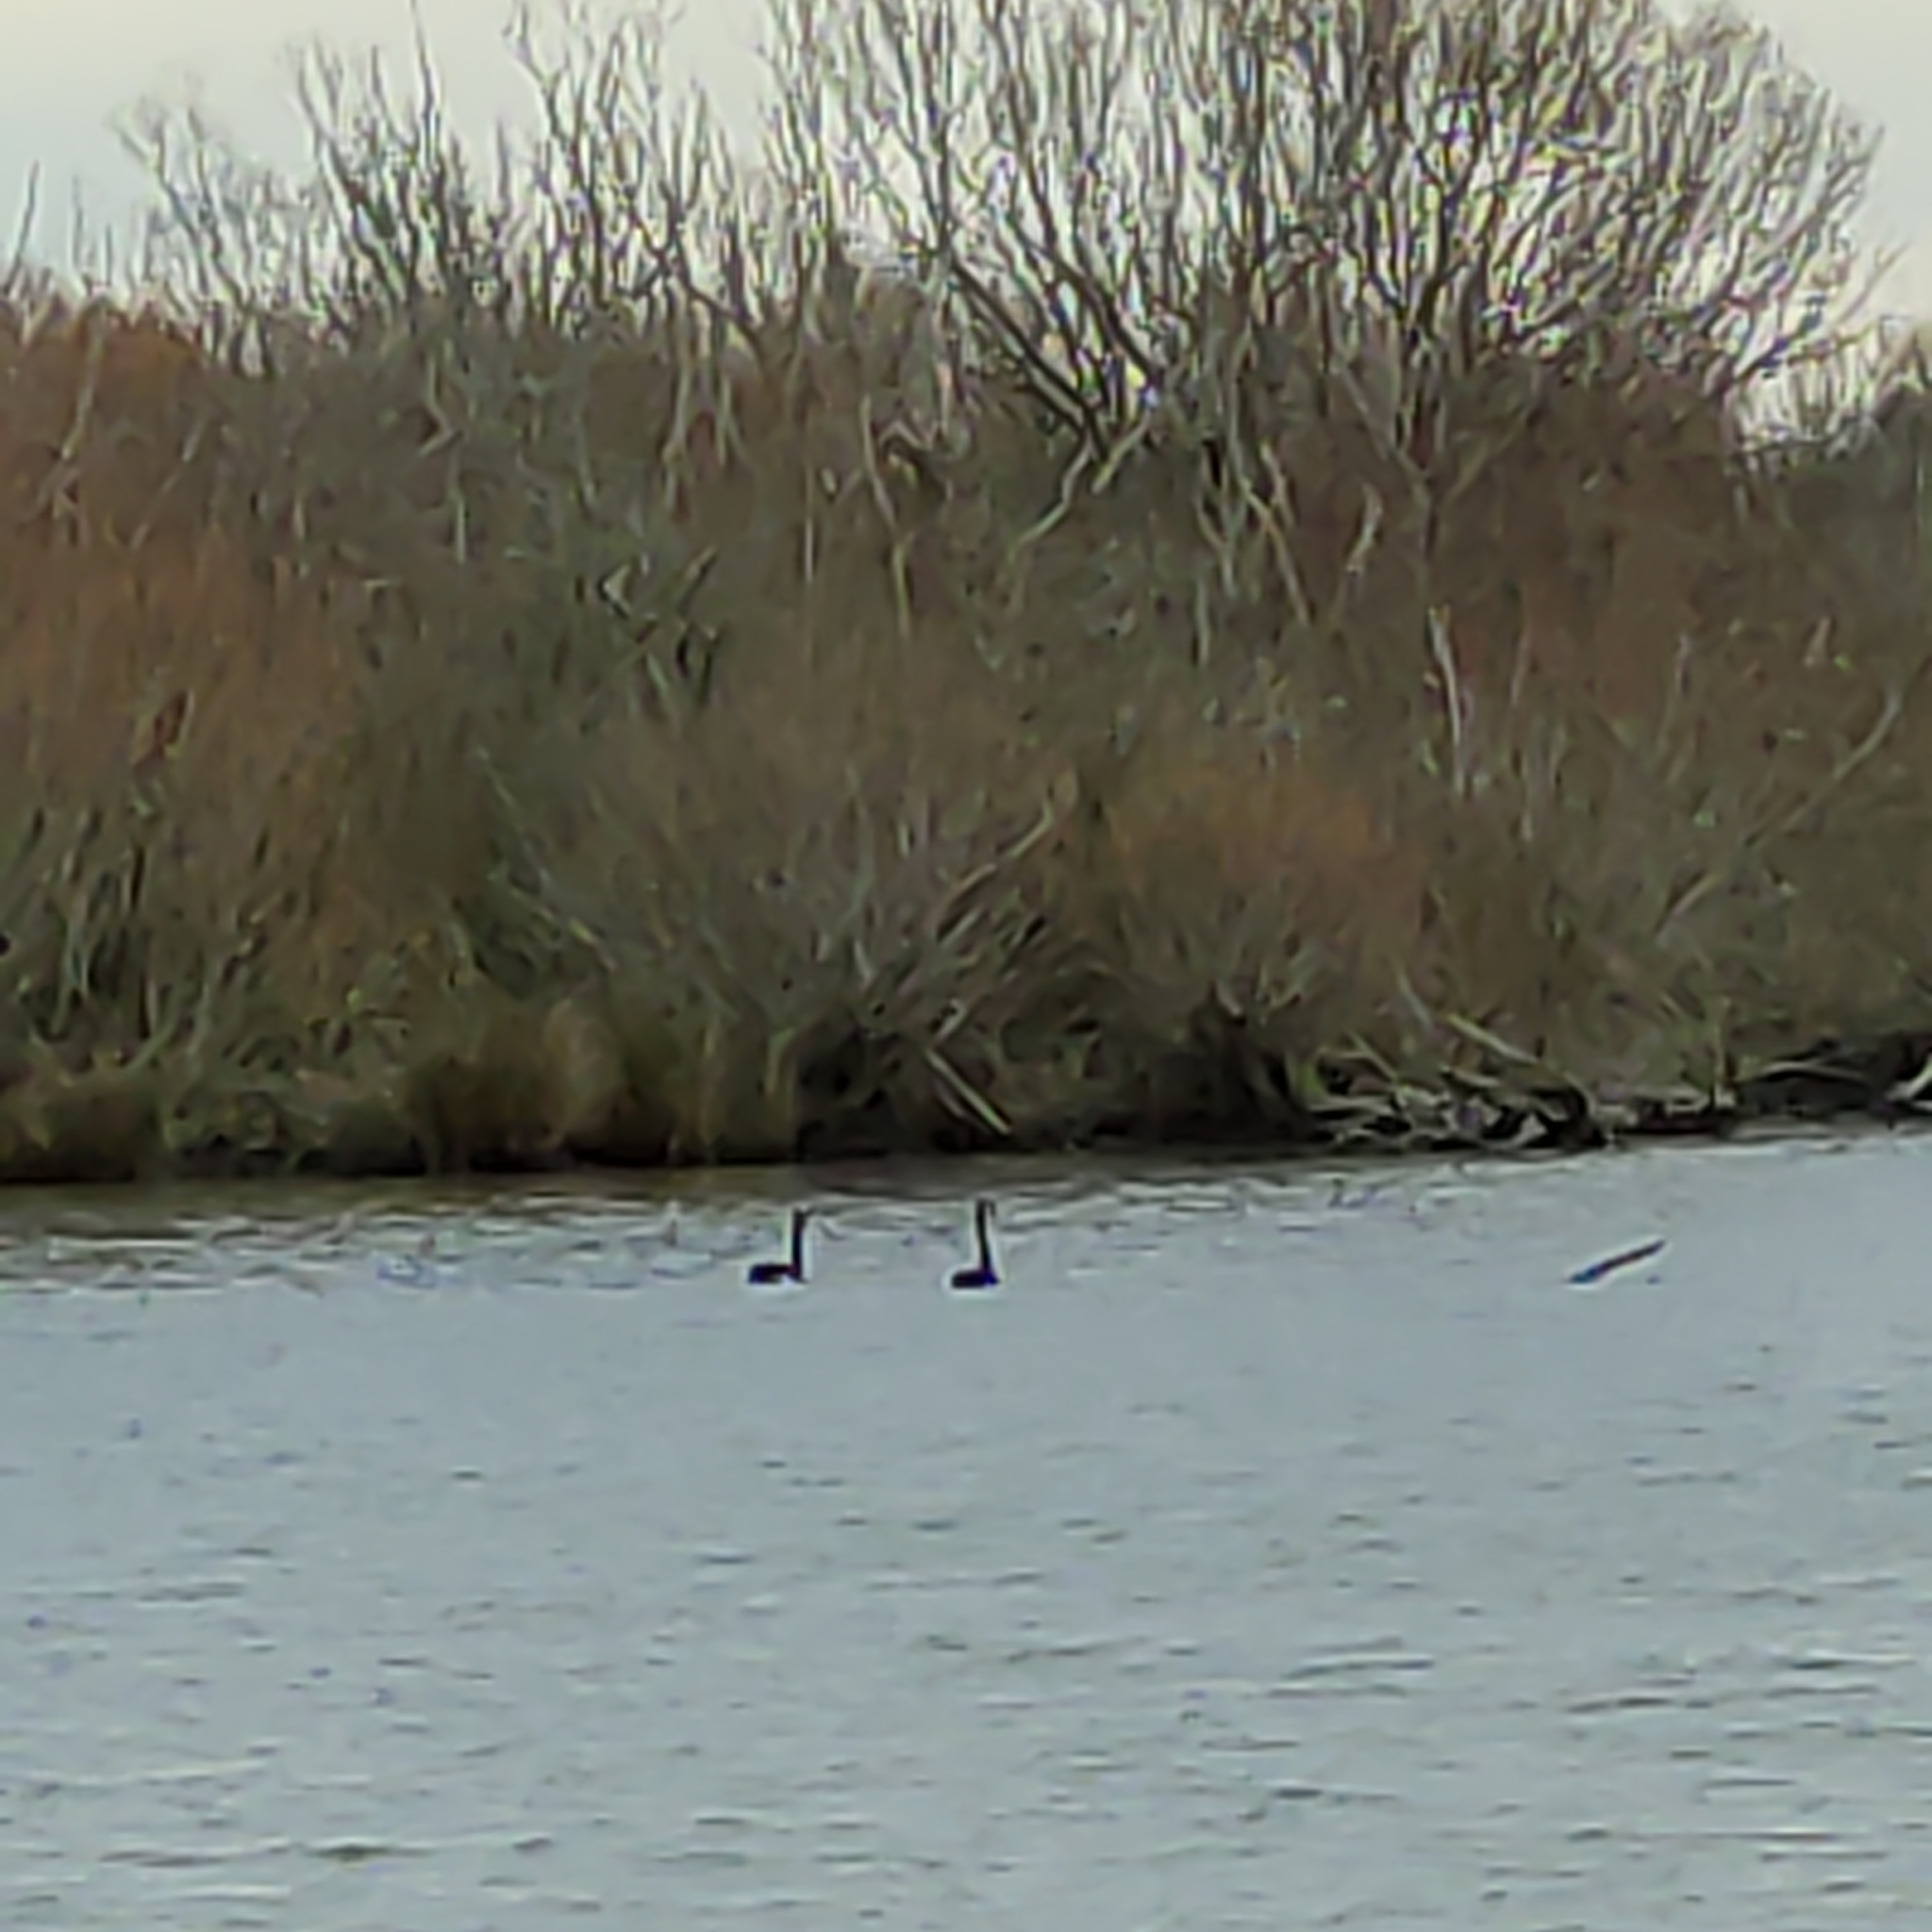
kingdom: Animalia
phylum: Chordata
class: Aves
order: Anseriformes
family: Anatidae
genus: Cygnus
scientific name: Cygnus atratus
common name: Black swan
